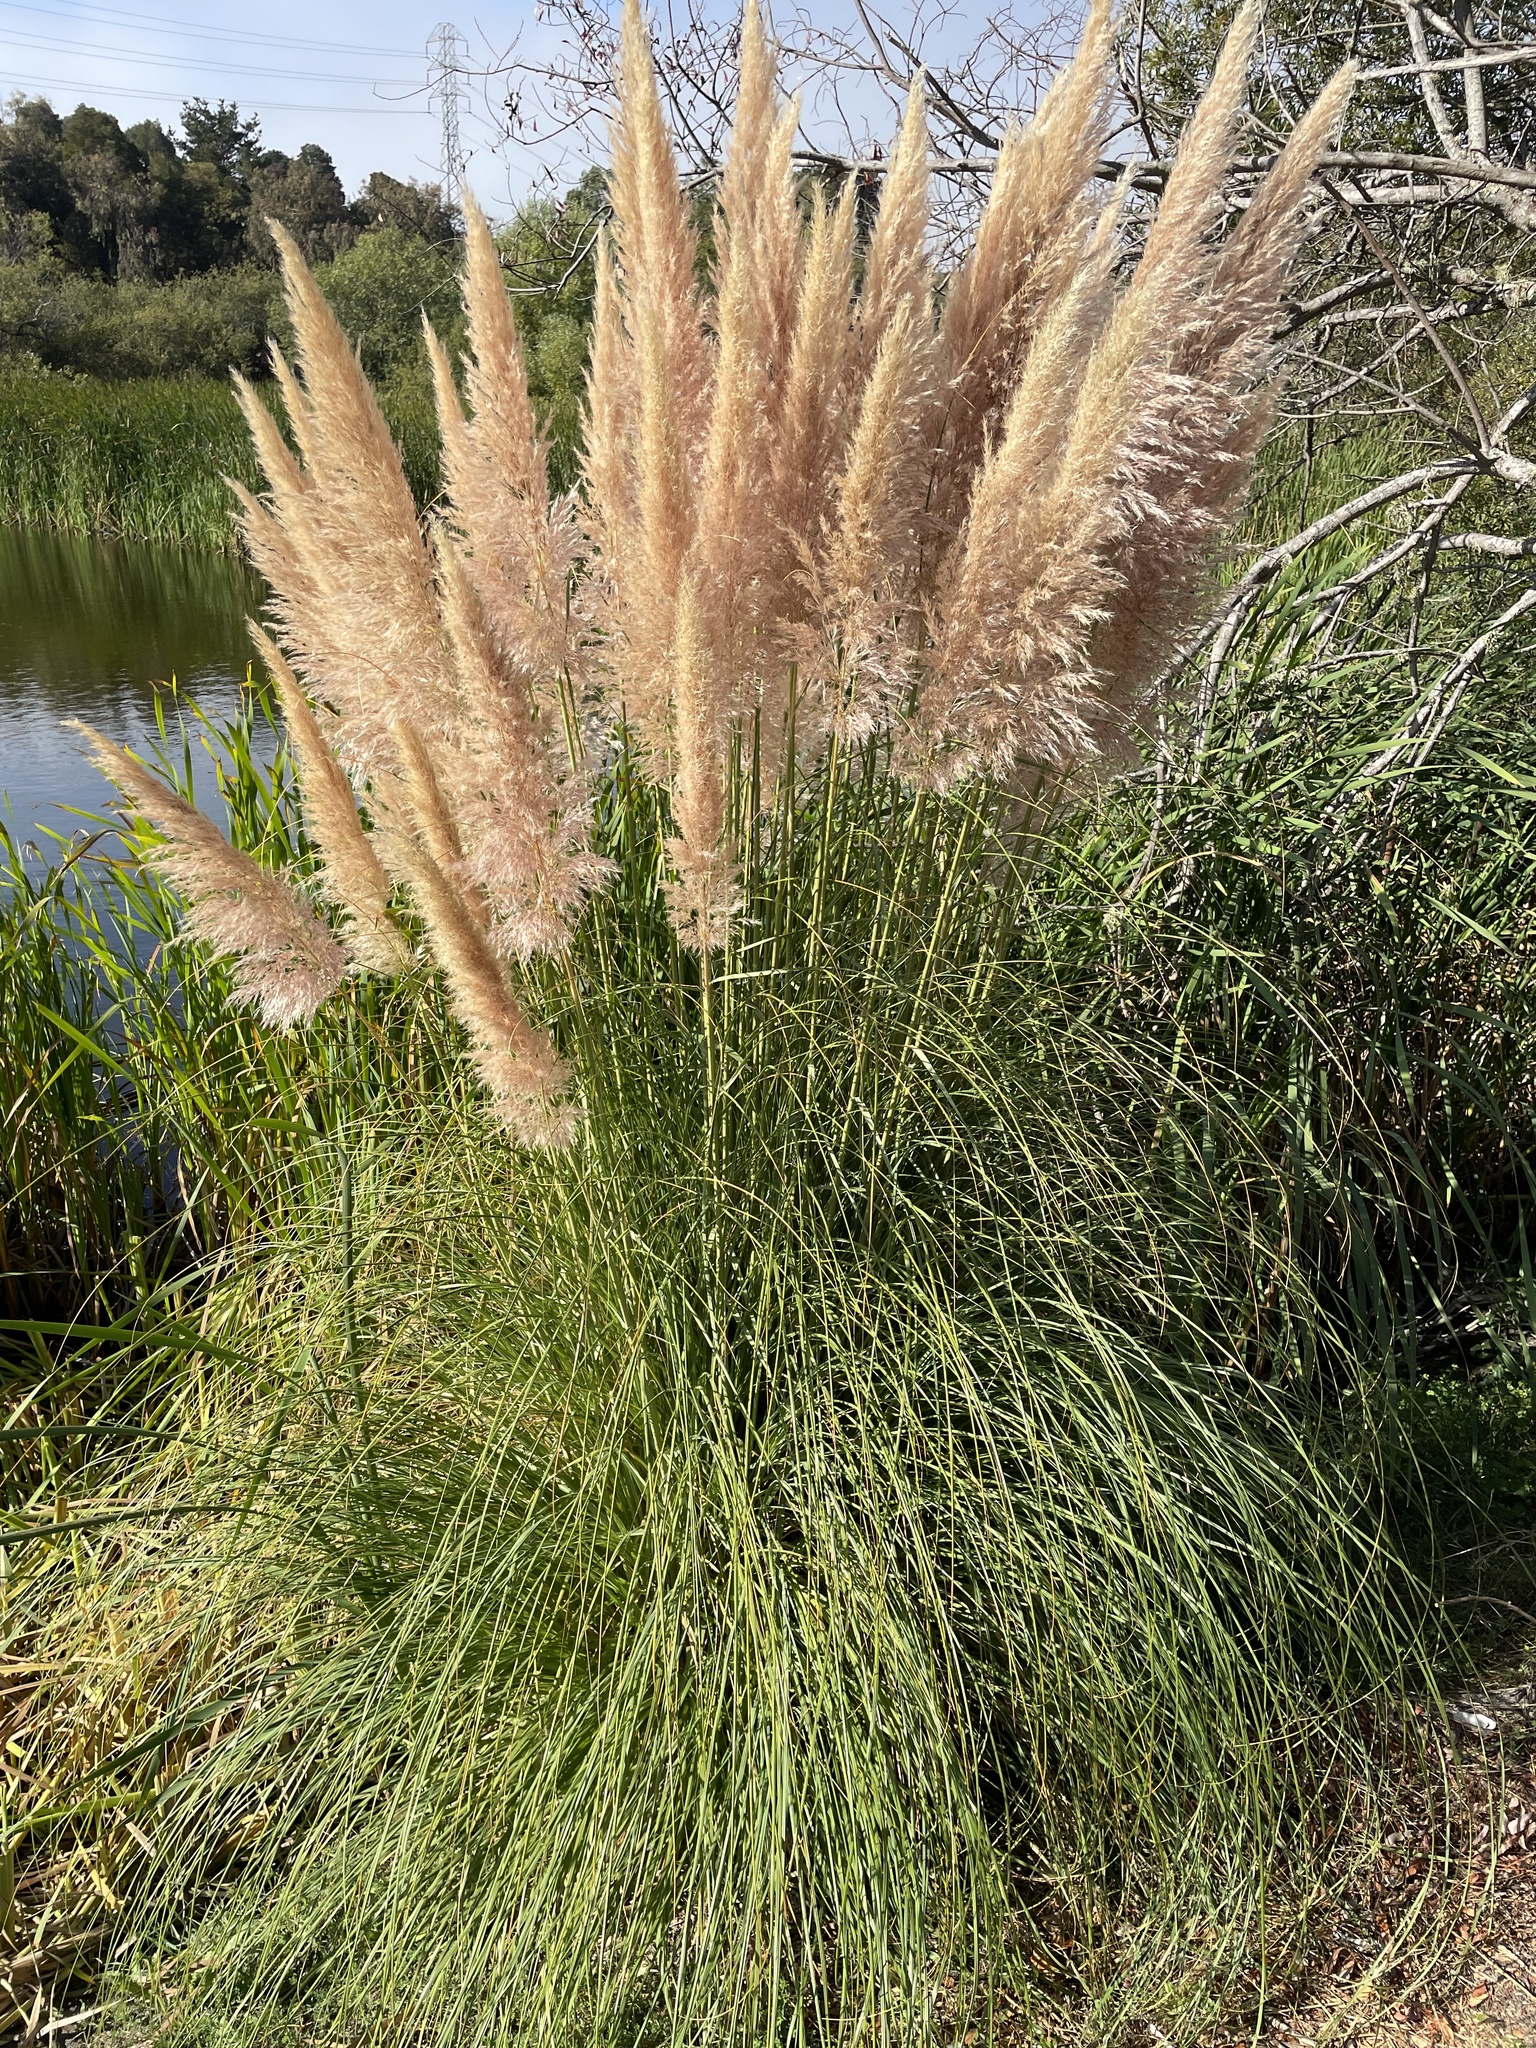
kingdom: Plantae
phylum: Tracheophyta
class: Liliopsida
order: Poales
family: Poaceae
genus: Cortaderia
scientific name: Cortaderia selloana
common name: Uruguayan pampas grass
